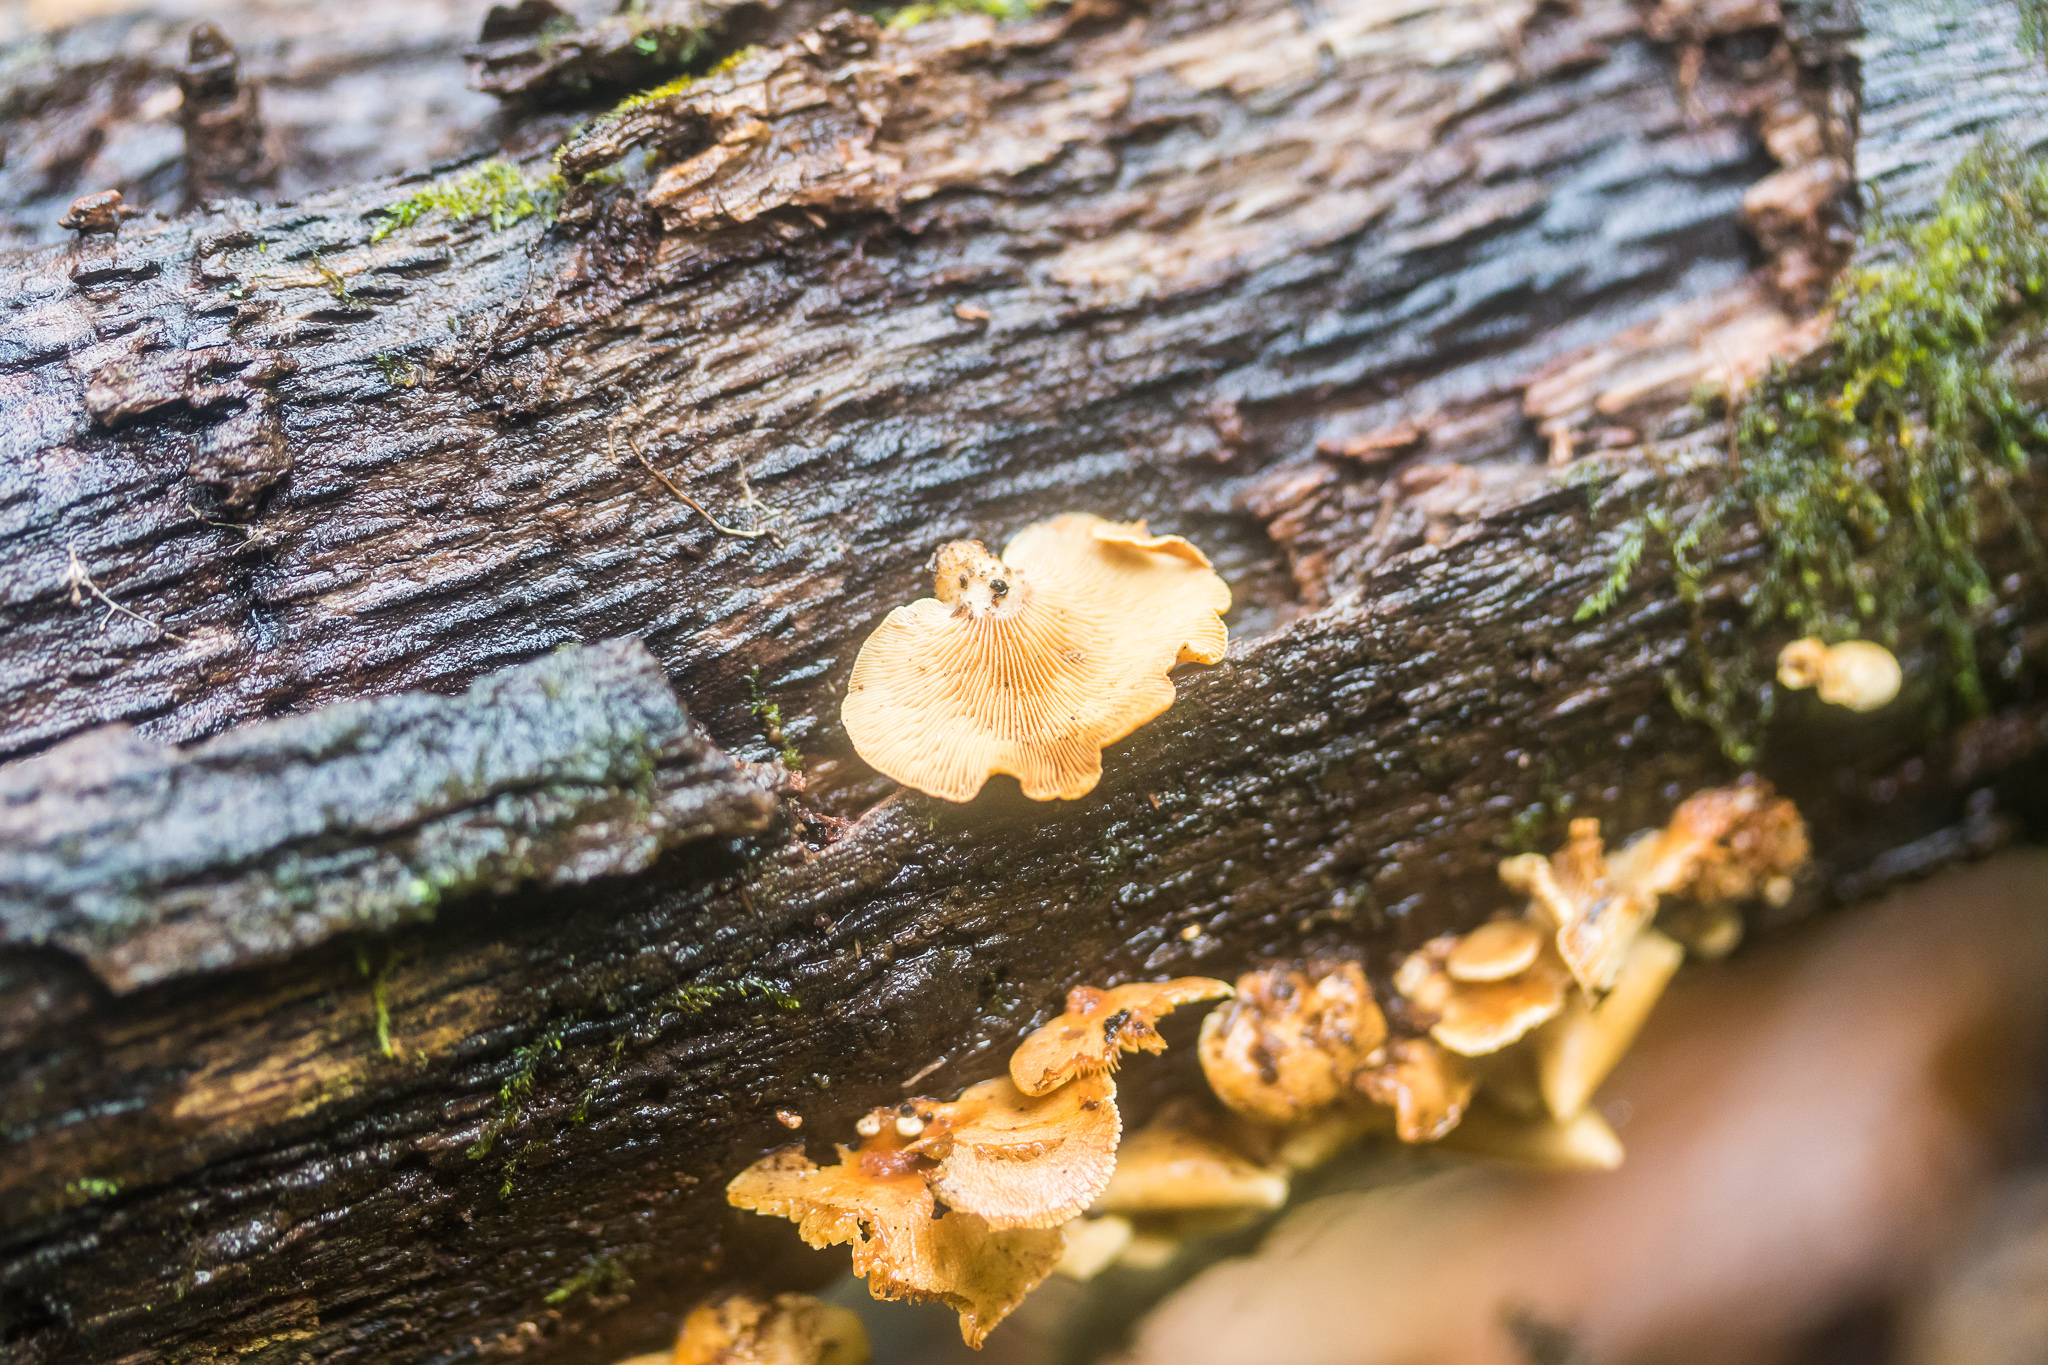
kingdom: Fungi
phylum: Basidiomycota
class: Agaricomycetes
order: Agaricales
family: Mycenaceae
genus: Panellus
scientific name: Panellus stipticus
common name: Bitter oysterling
